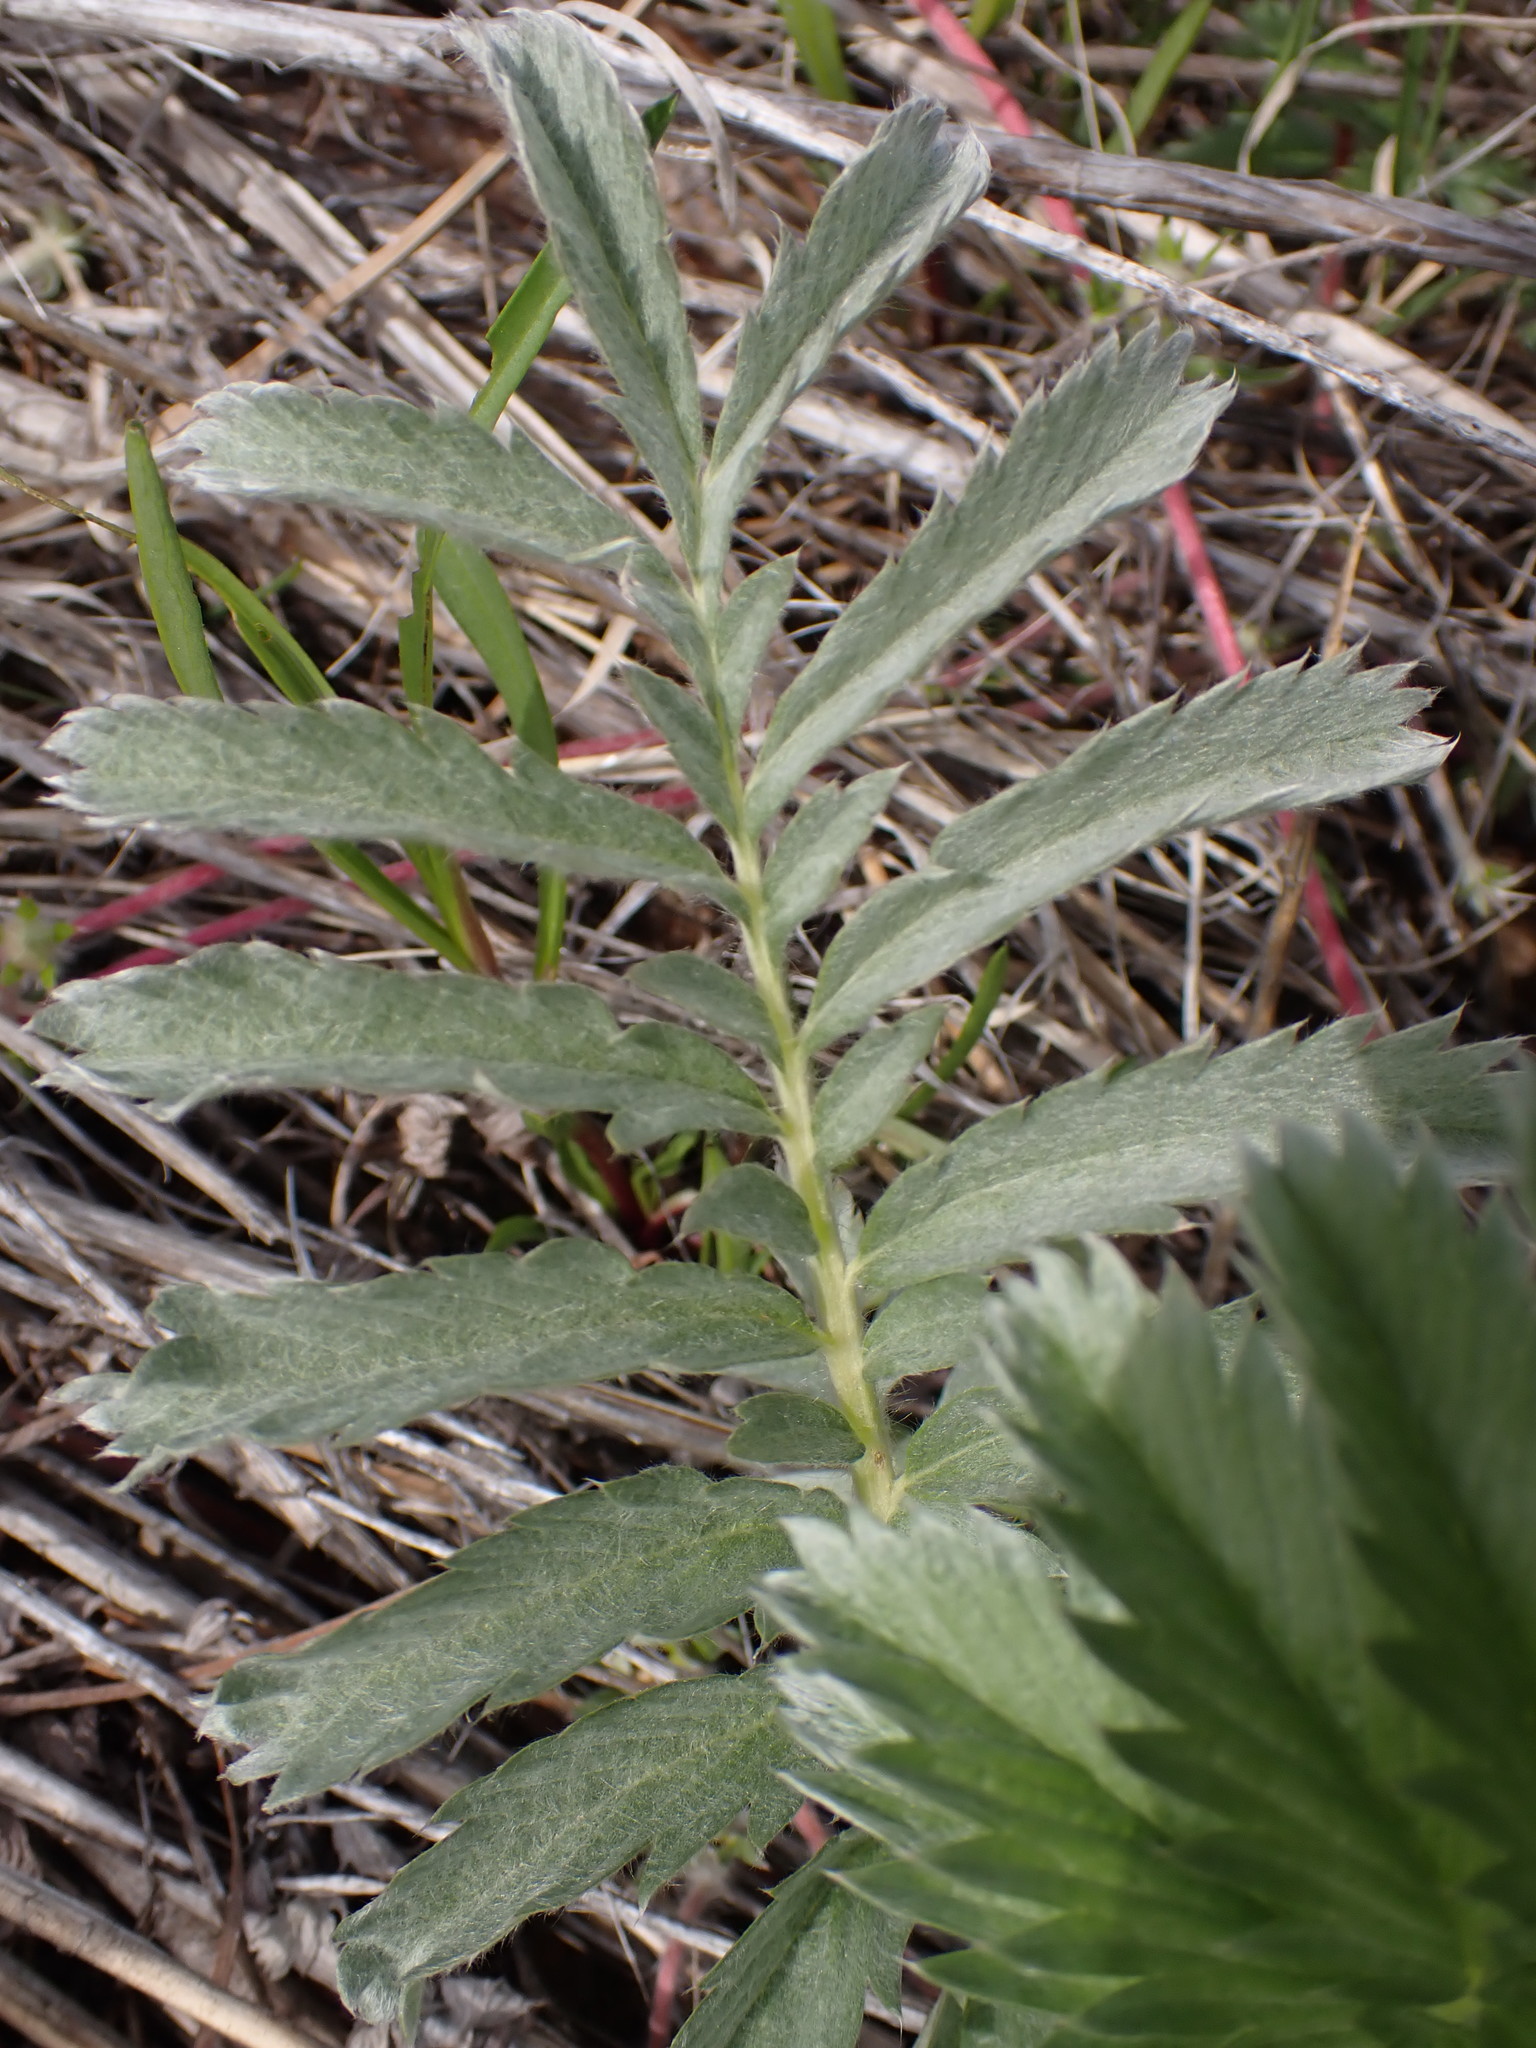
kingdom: Plantae
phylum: Tracheophyta
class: Magnoliopsida
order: Rosales
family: Rosaceae
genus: Argentina
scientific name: Argentina anserina
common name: Common silverweed
